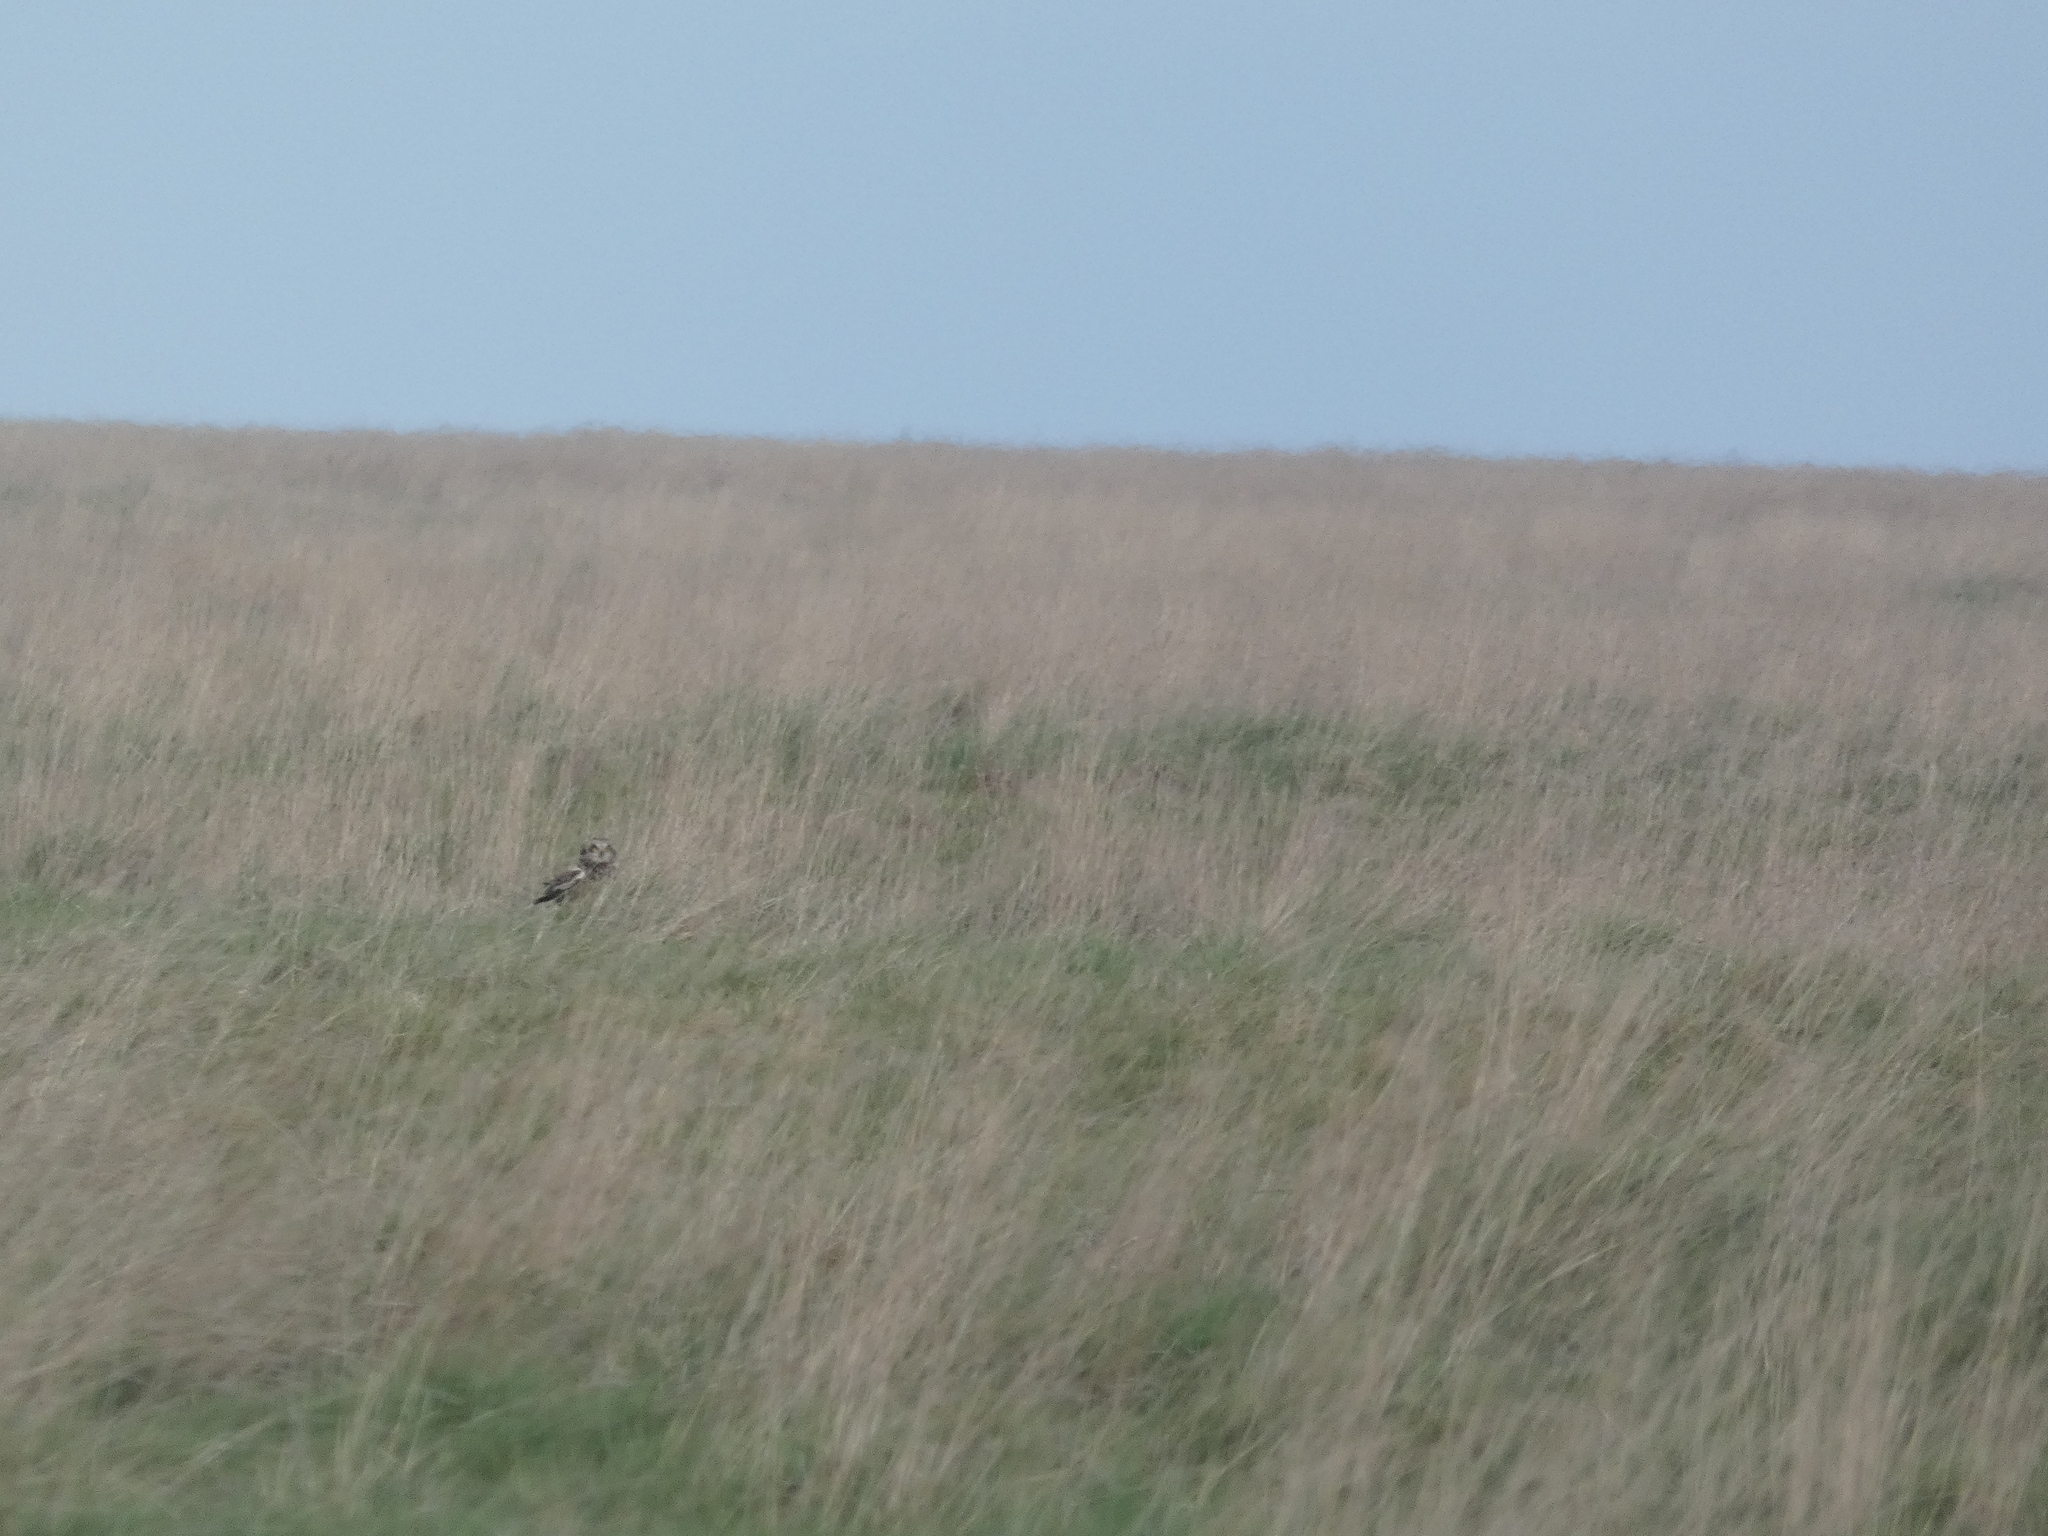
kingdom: Animalia
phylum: Chordata
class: Aves
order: Strigiformes
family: Strigidae
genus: Asio
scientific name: Asio flammeus
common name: Short-eared owl
